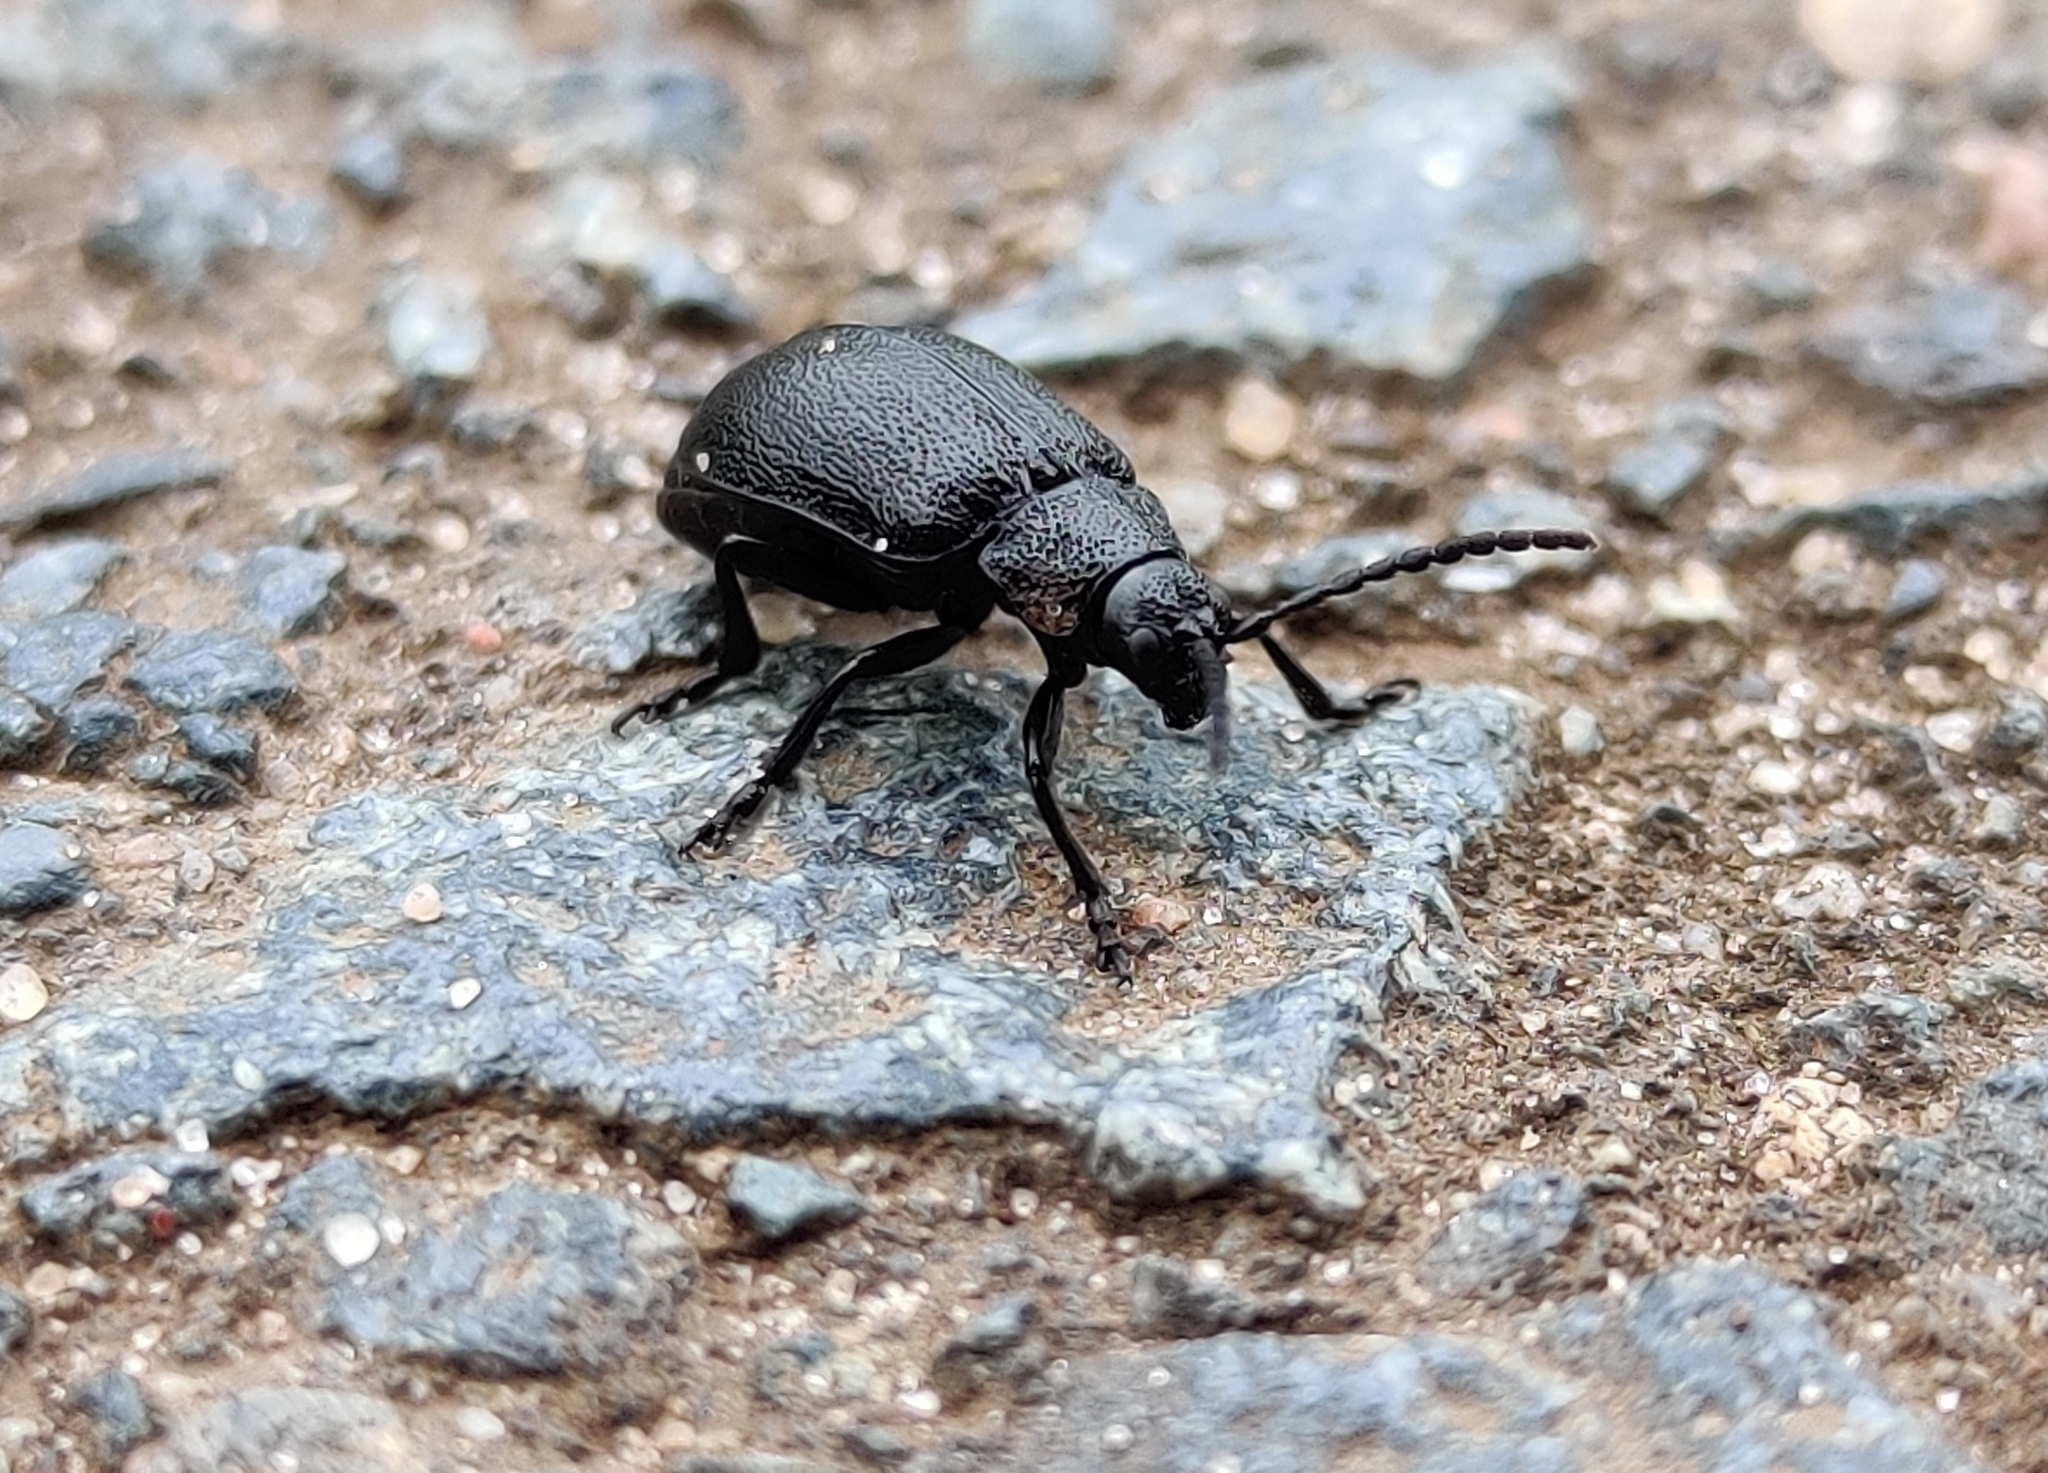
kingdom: Animalia
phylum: Arthropoda
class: Insecta
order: Coleoptera
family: Chrysomelidae
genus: Galeruca
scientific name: Galeruca tanaceti
